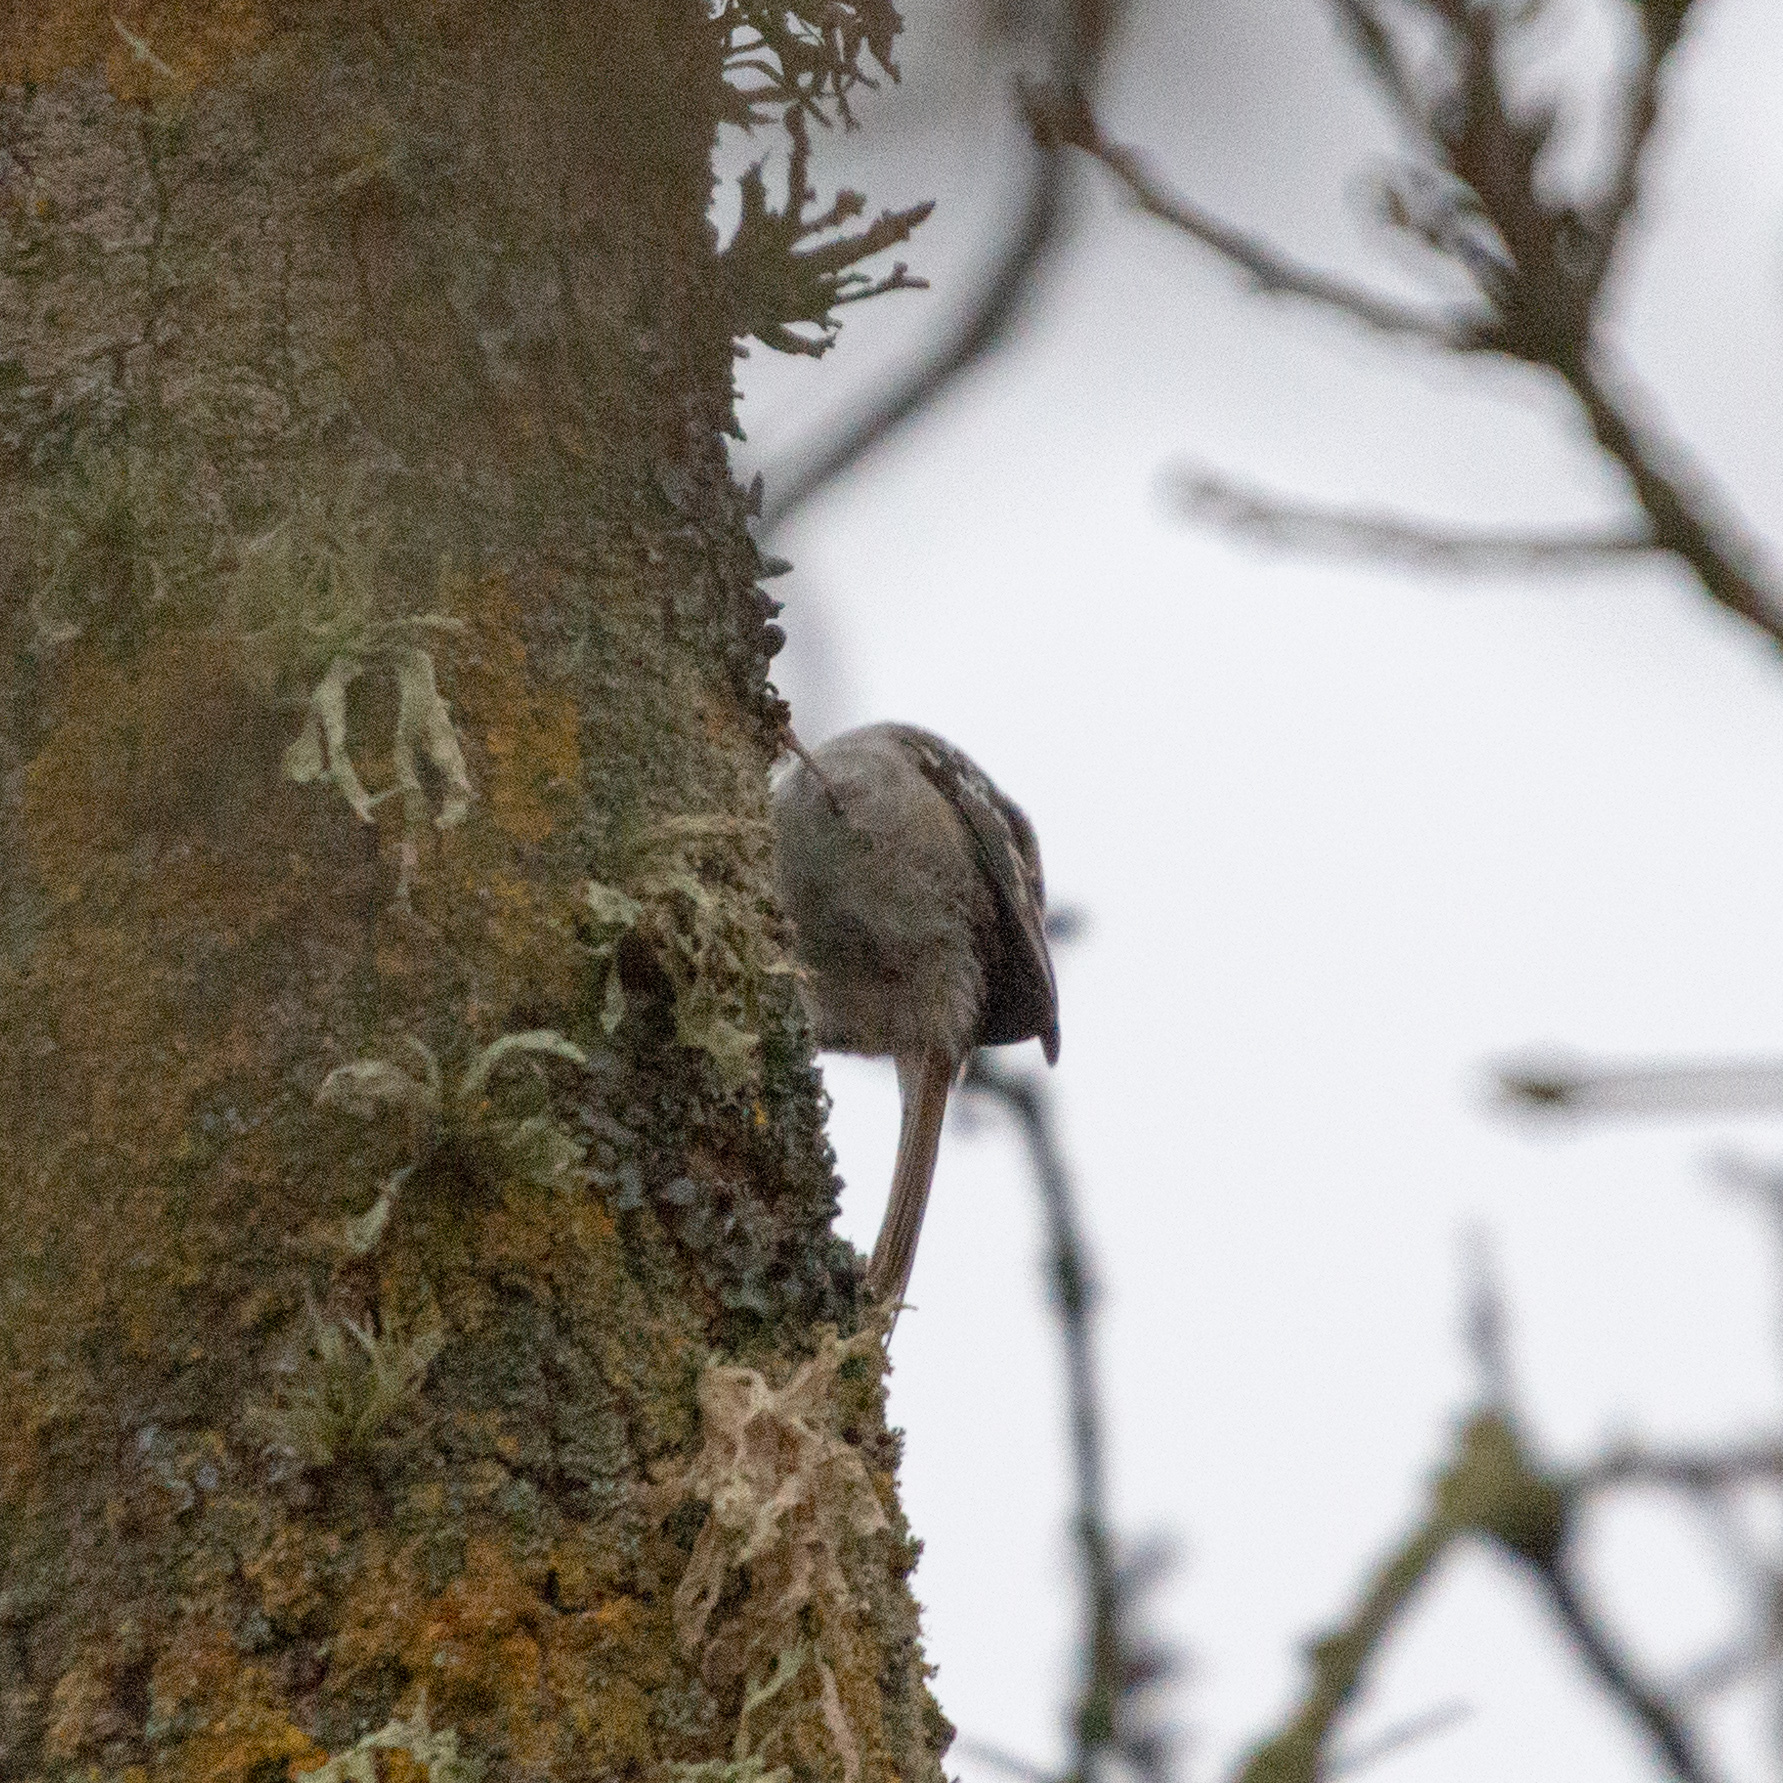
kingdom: Animalia
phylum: Chordata
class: Aves
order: Passeriformes
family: Certhiidae
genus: Certhia
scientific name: Certhia brachydactyla
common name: Short-toed treecreeper
